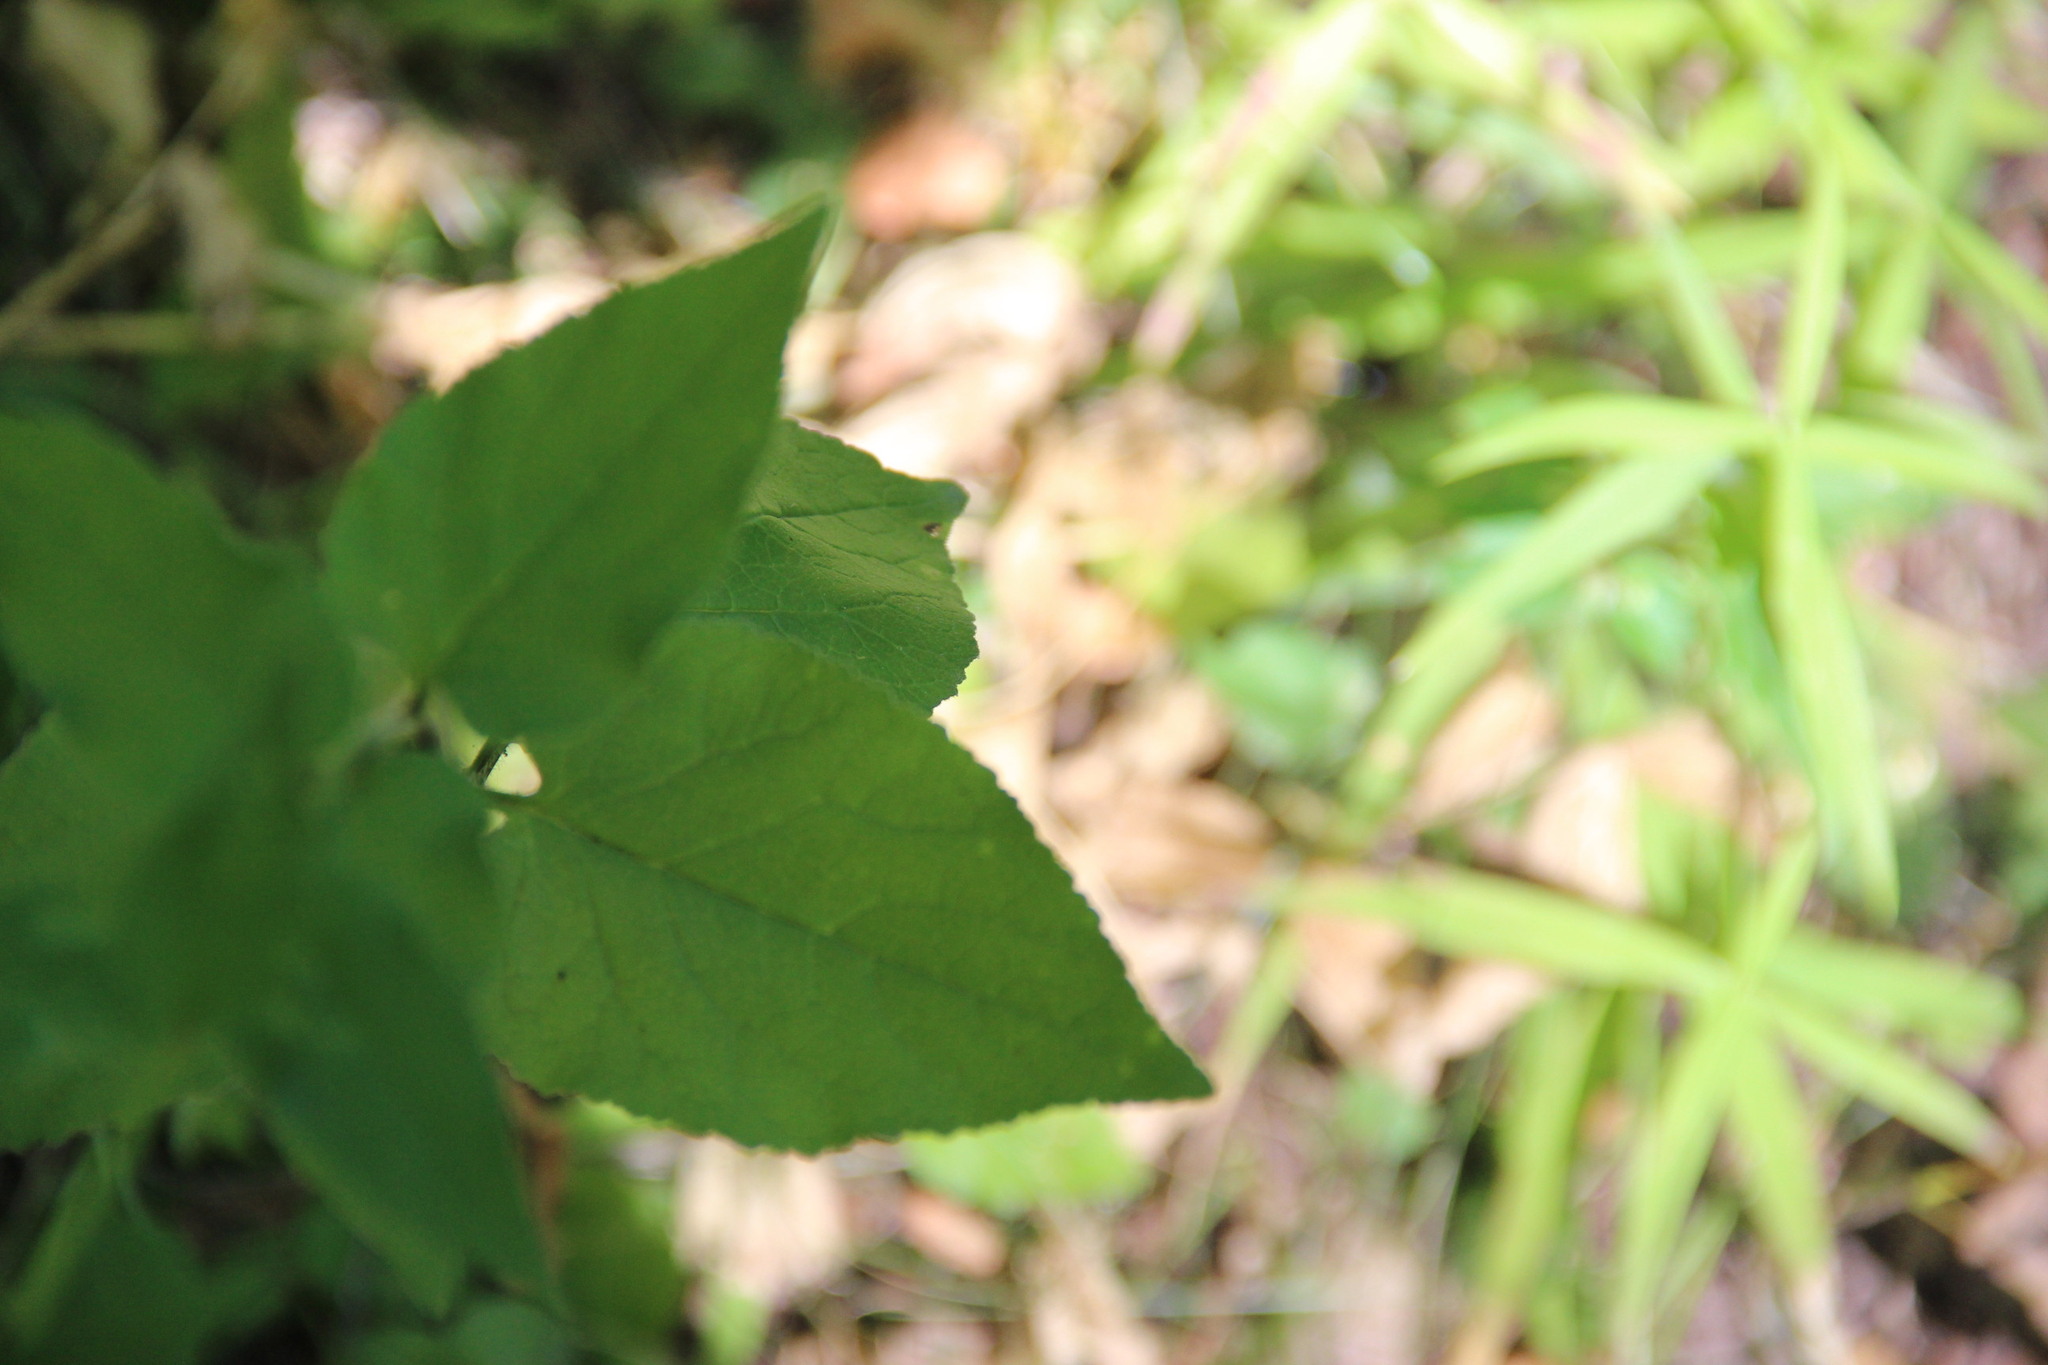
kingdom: Plantae
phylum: Tracheophyta
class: Magnoliopsida
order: Asterales
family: Campanulaceae
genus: Campanula
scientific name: Campanula rapunculoides
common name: Creeping bellflower
